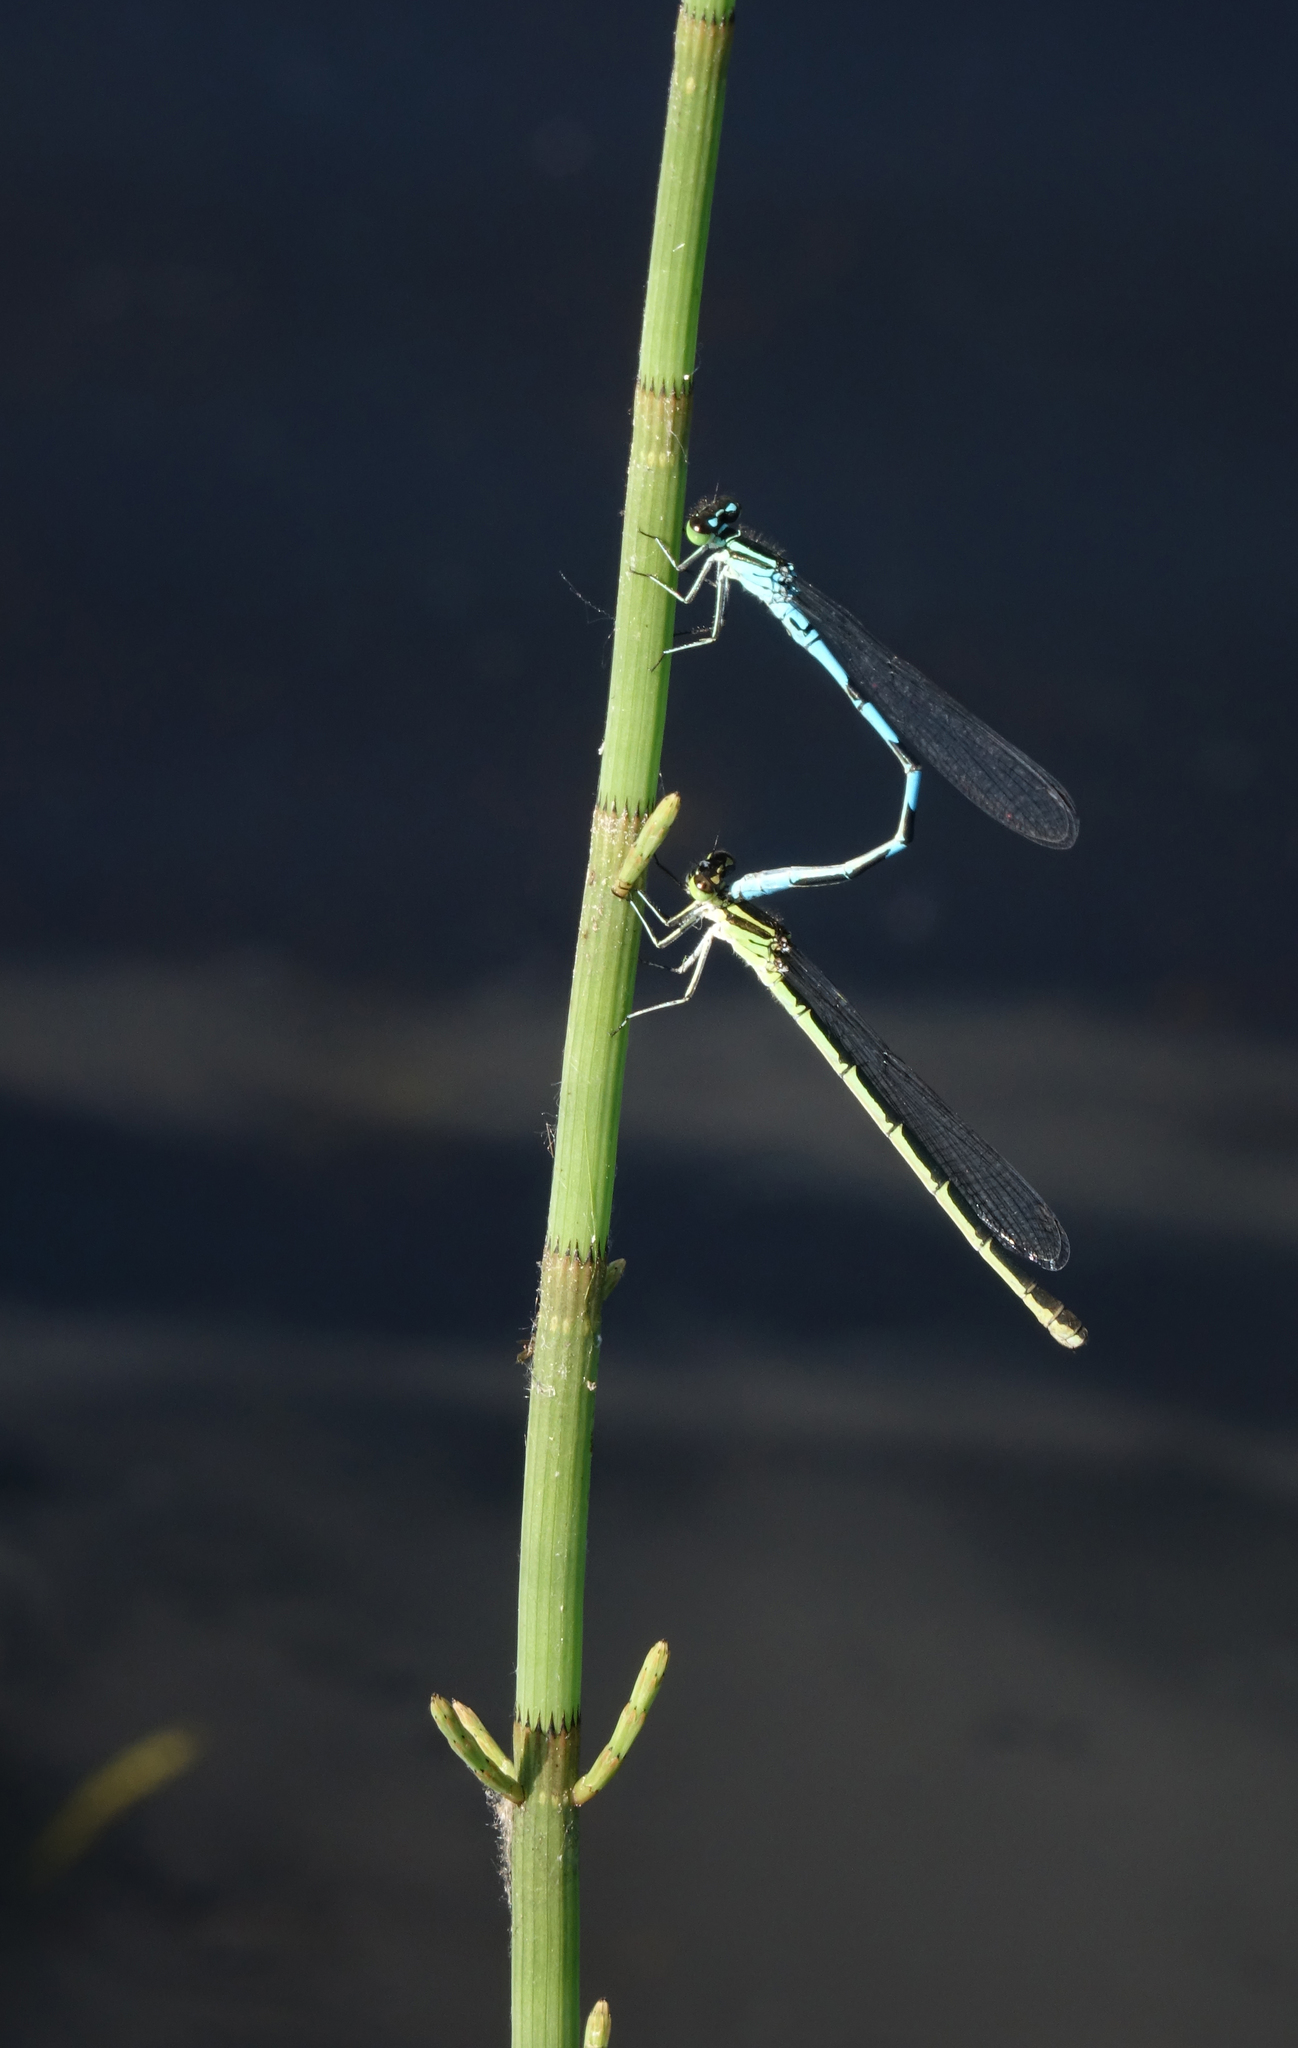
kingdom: Animalia
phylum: Arthropoda
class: Insecta
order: Odonata
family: Coenagrionidae
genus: Coenagrion
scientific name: Coenagrion hastulatum
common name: Spearhead bluet
